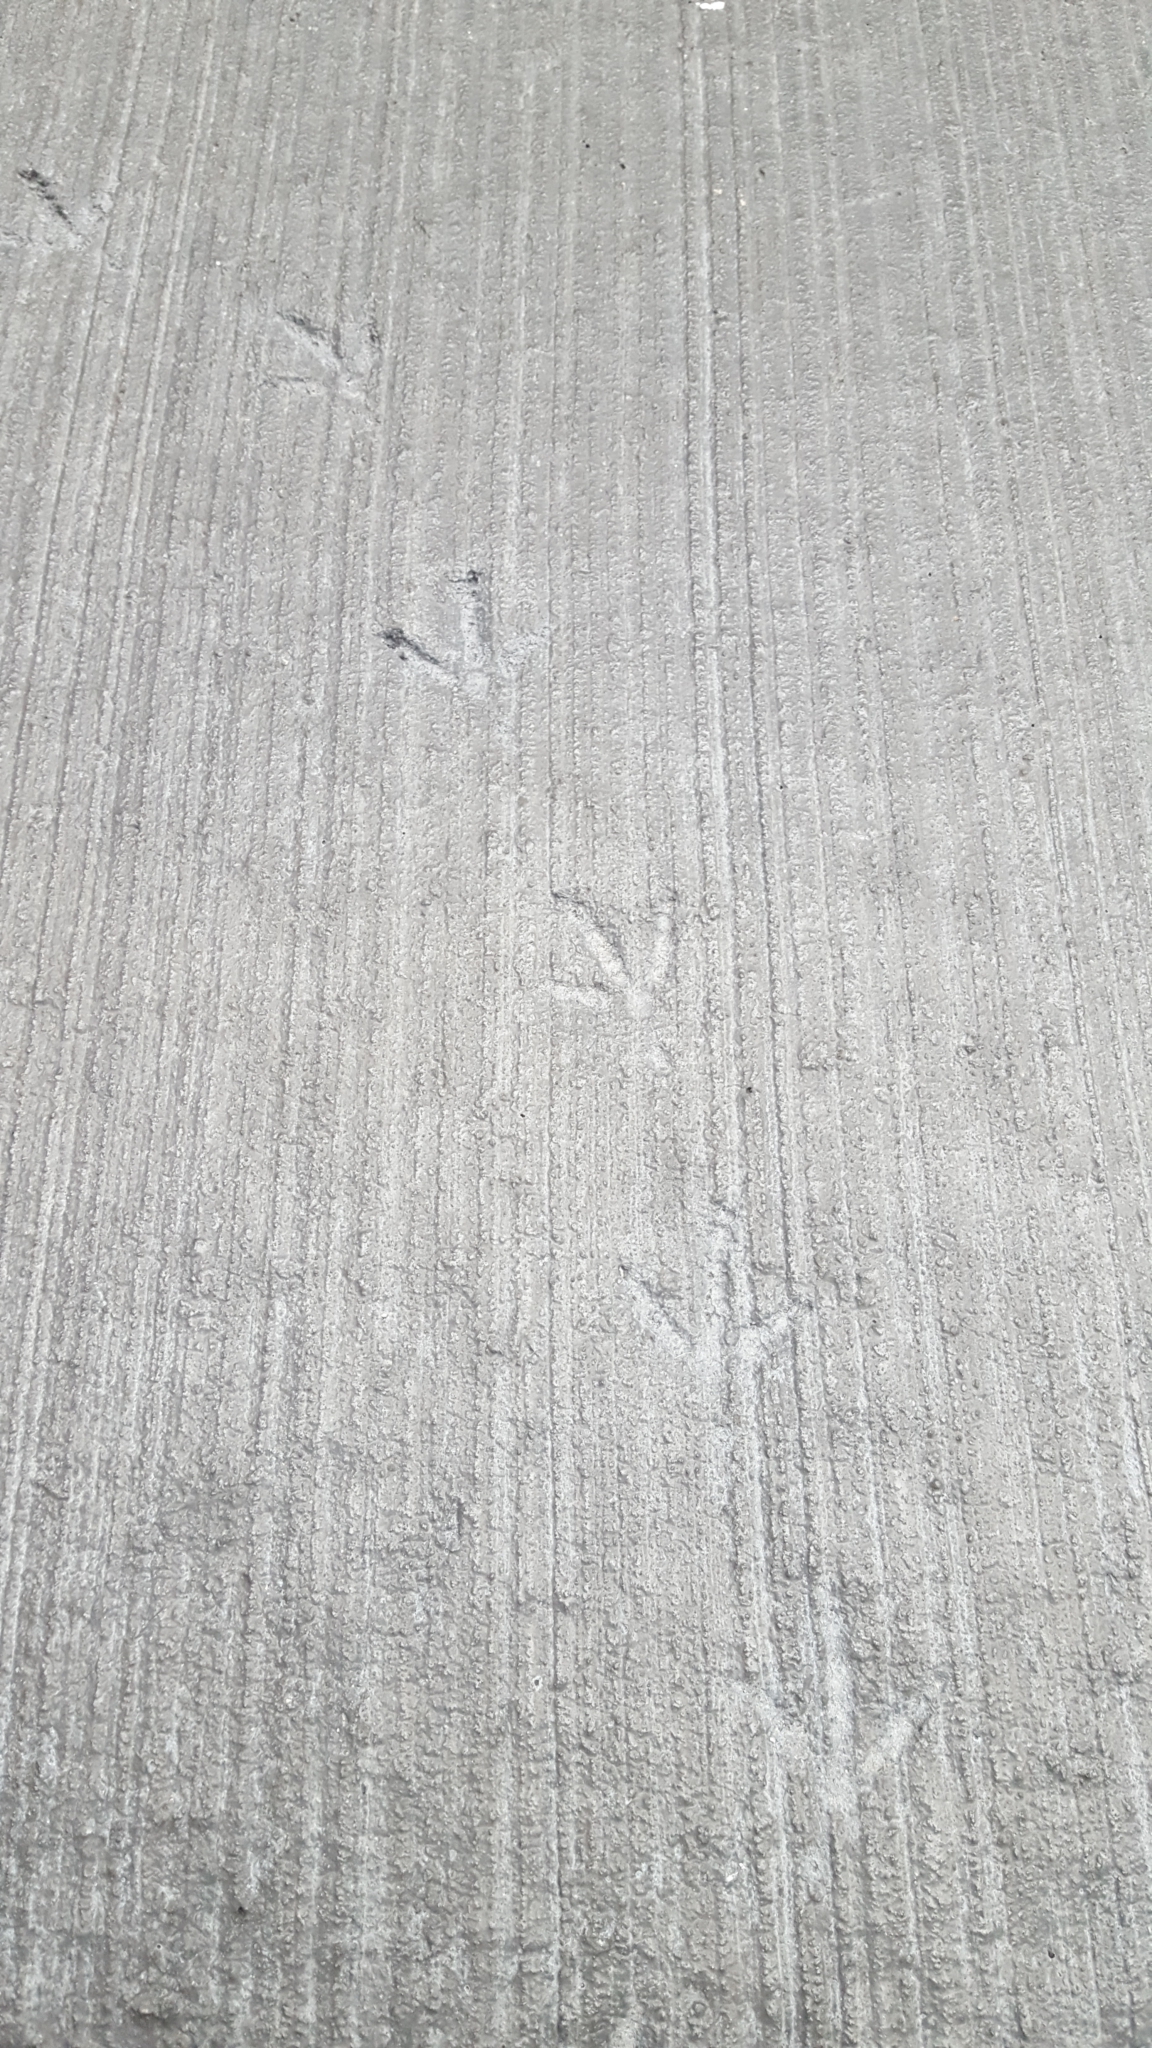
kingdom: Animalia
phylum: Chordata
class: Aves
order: Columbiformes
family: Columbidae
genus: Columba
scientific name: Columba livia
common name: Rock pigeon
